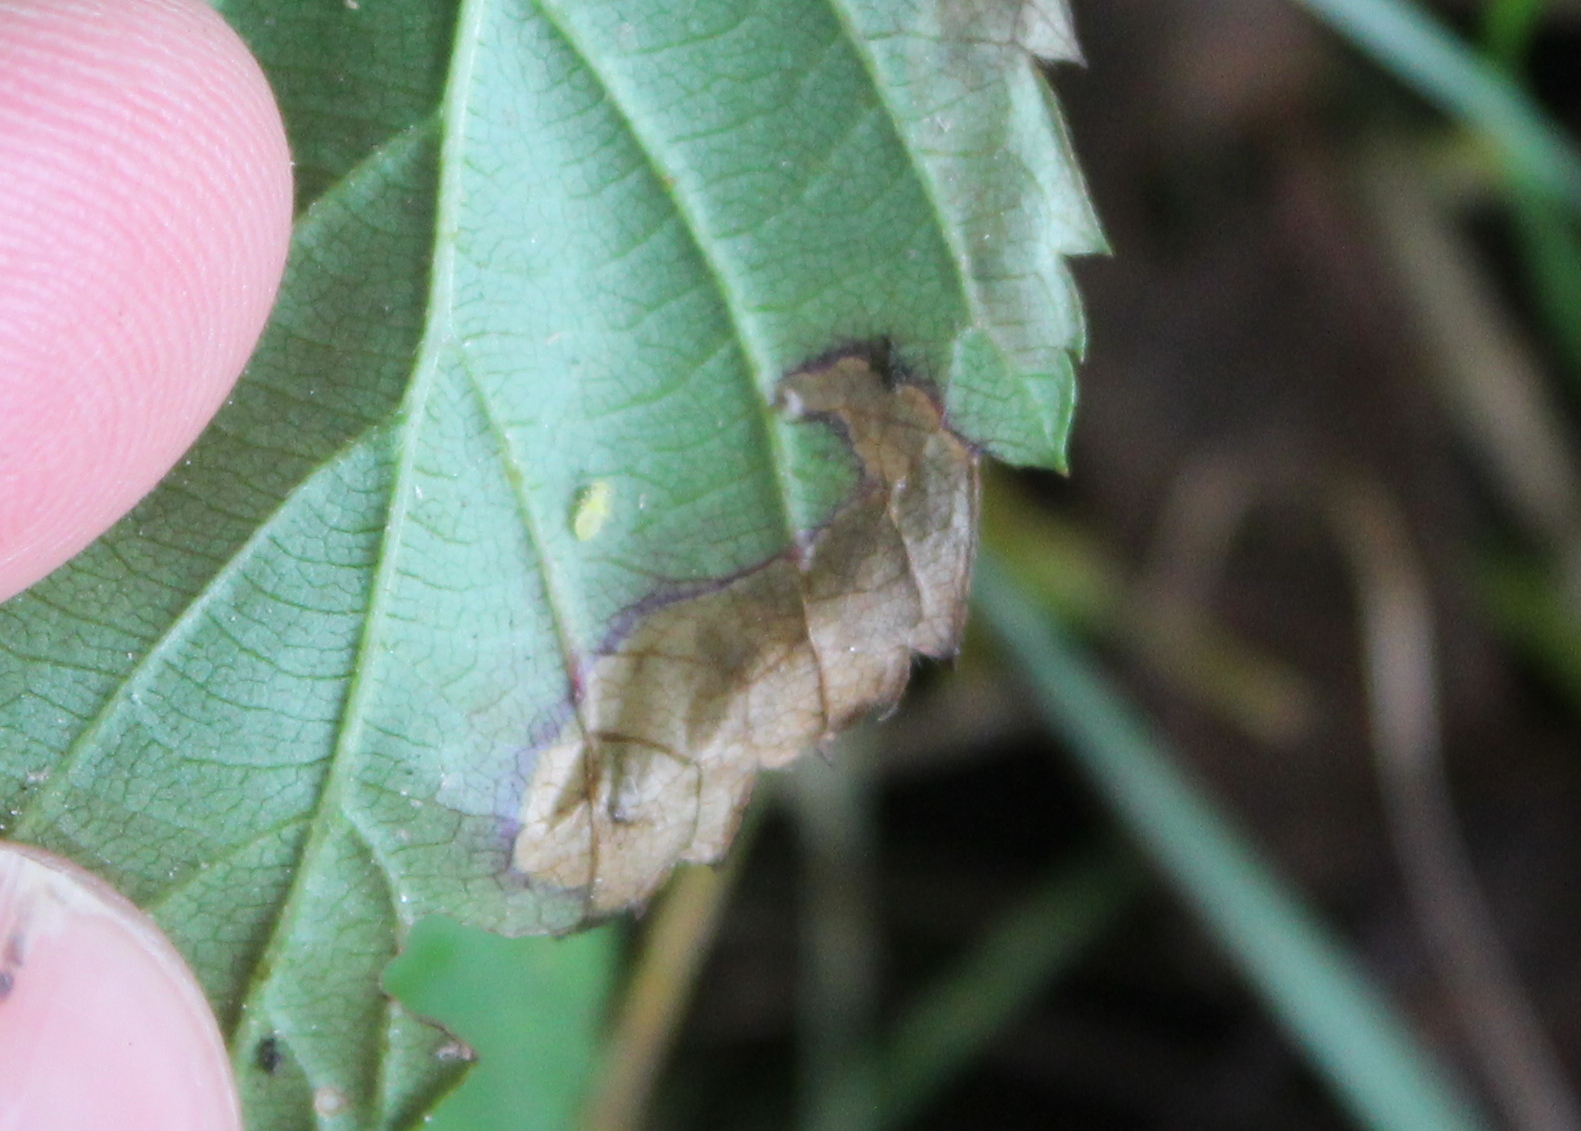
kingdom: Animalia
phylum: Arthropoda
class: Insecta
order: Hymenoptera
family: Tenthredinidae
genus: Metallus
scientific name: Metallus rohweri
